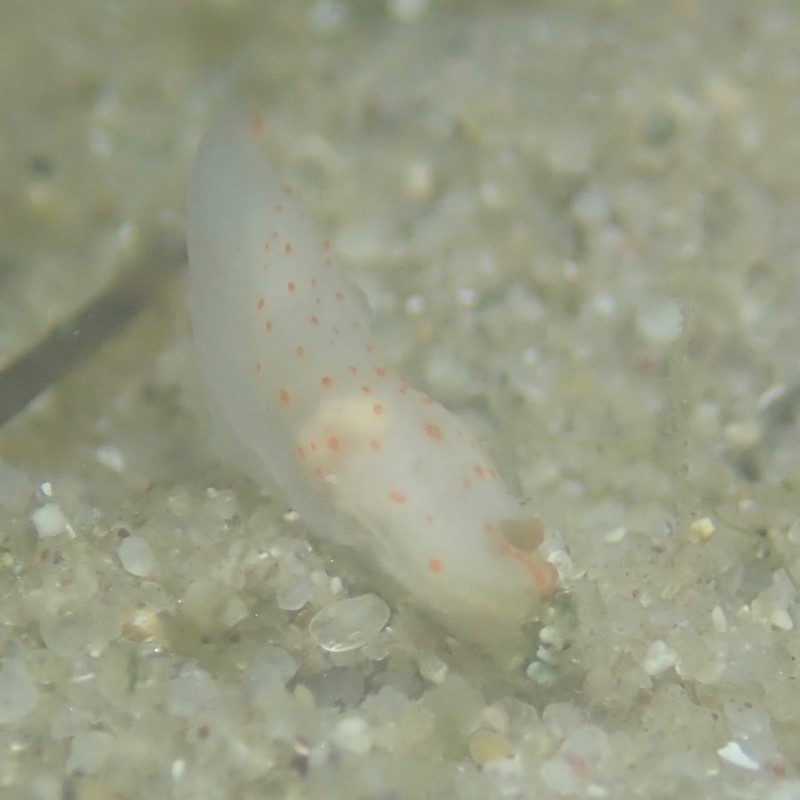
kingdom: Animalia
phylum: Mollusca
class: Gastropoda
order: Nudibranchia
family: Polyceridae
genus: Gymnodoris
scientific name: Gymnodoris alba
